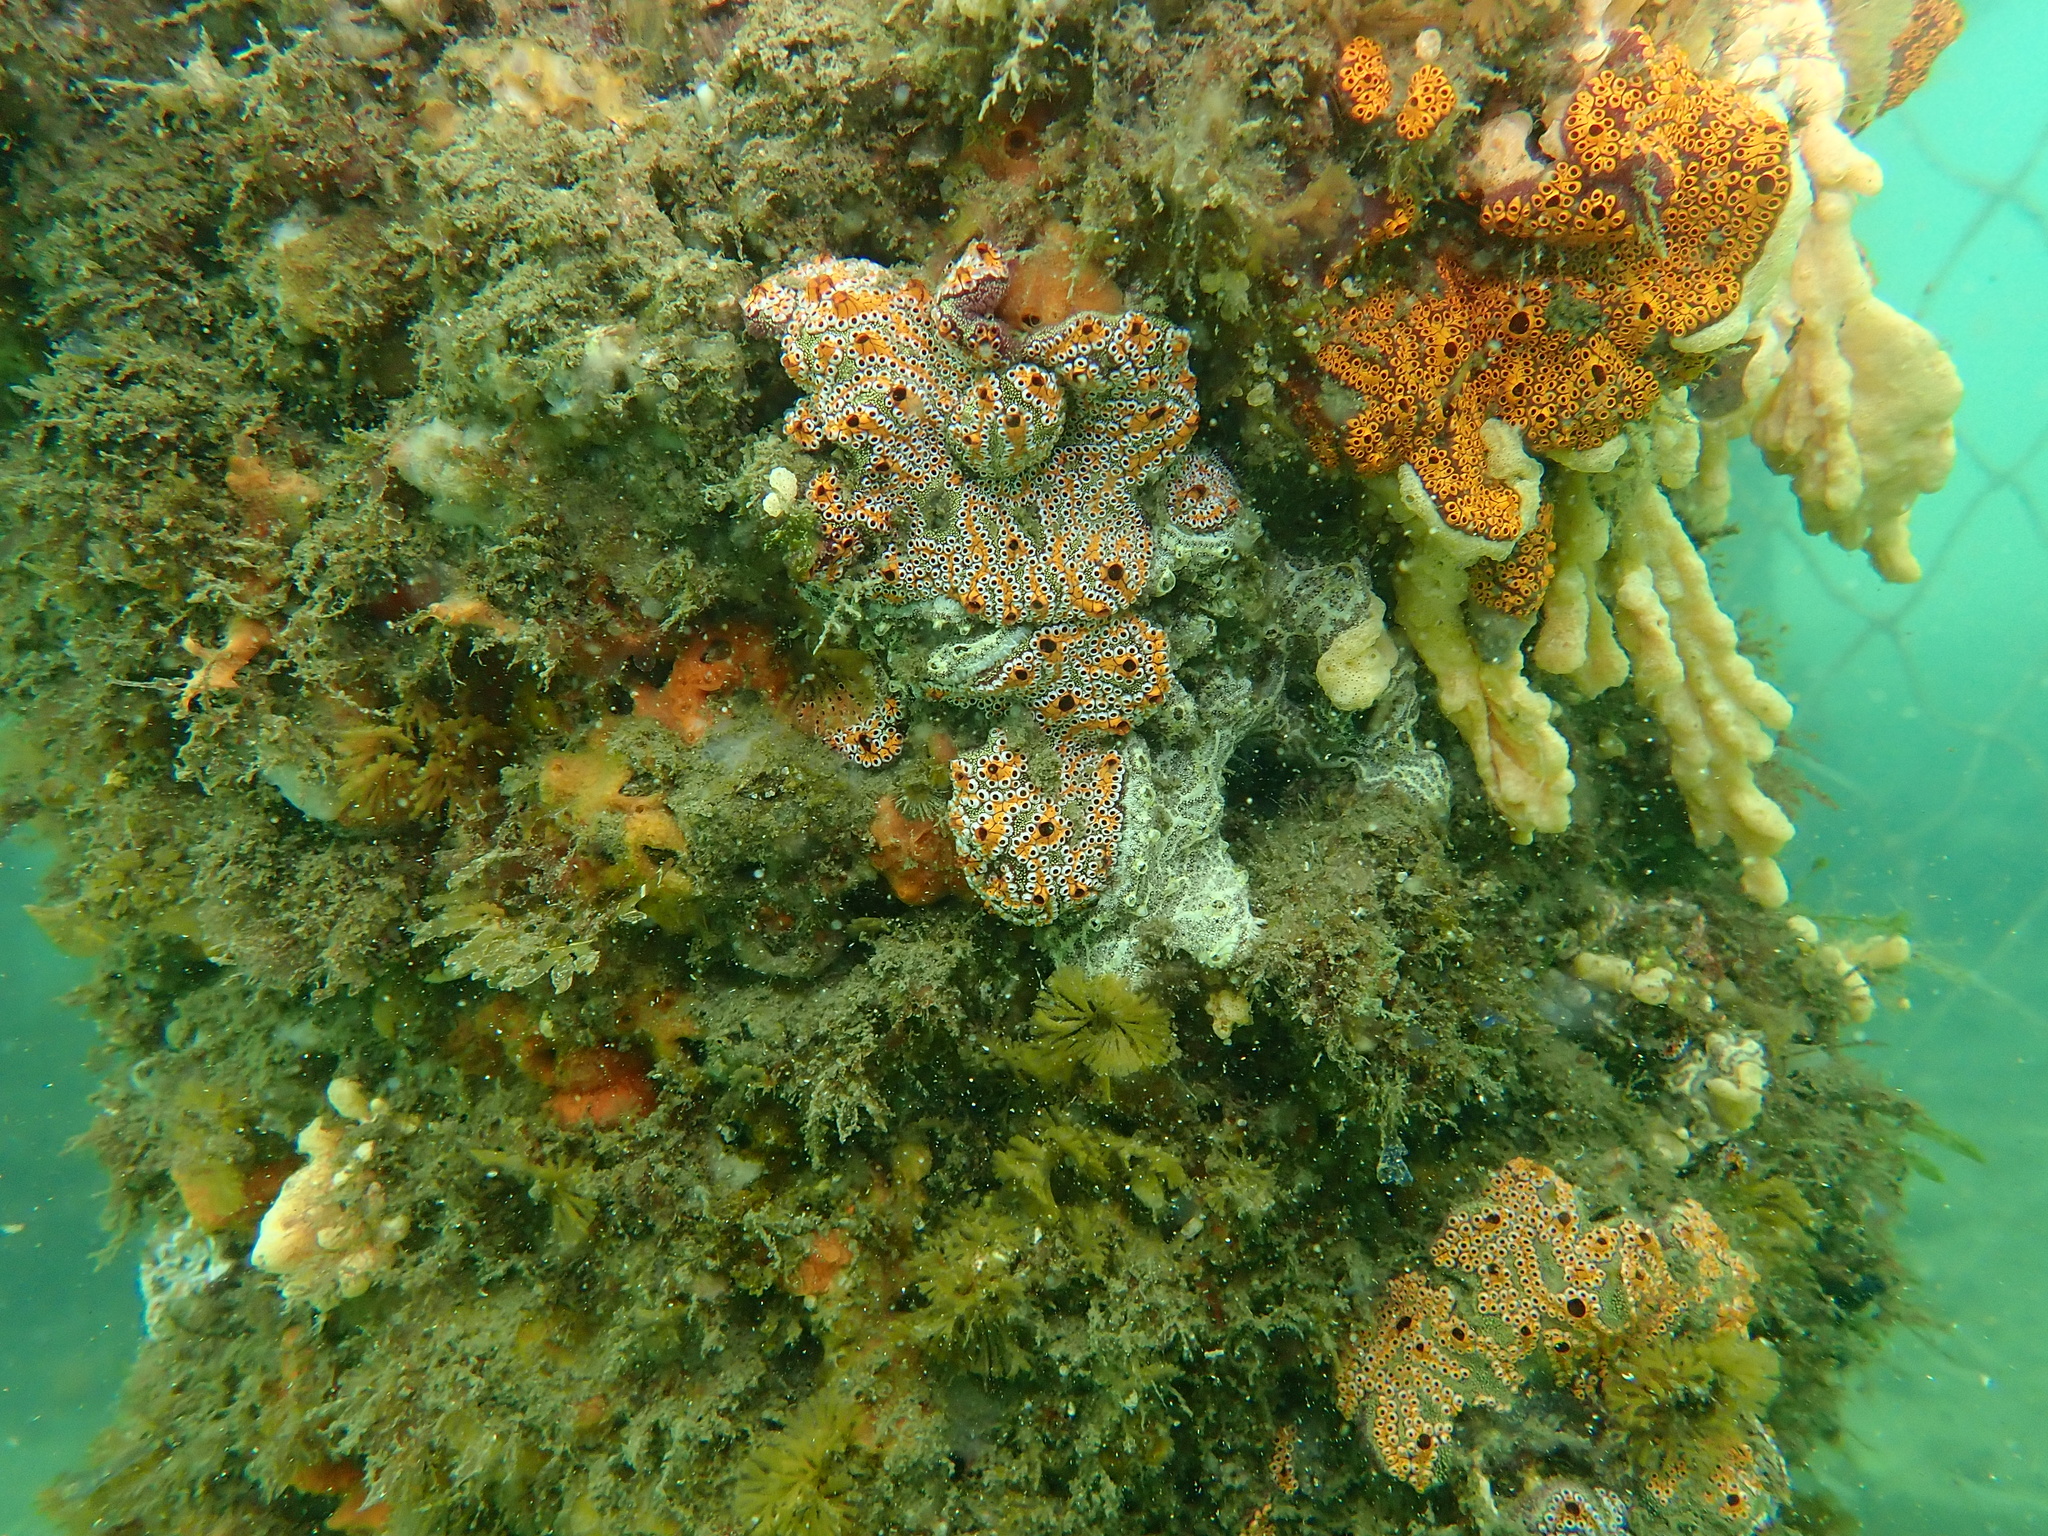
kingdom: Animalia
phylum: Chordata
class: Ascidiacea
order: Stolidobranchia
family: Styelidae
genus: Botrylloides
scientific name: Botrylloides leachii
